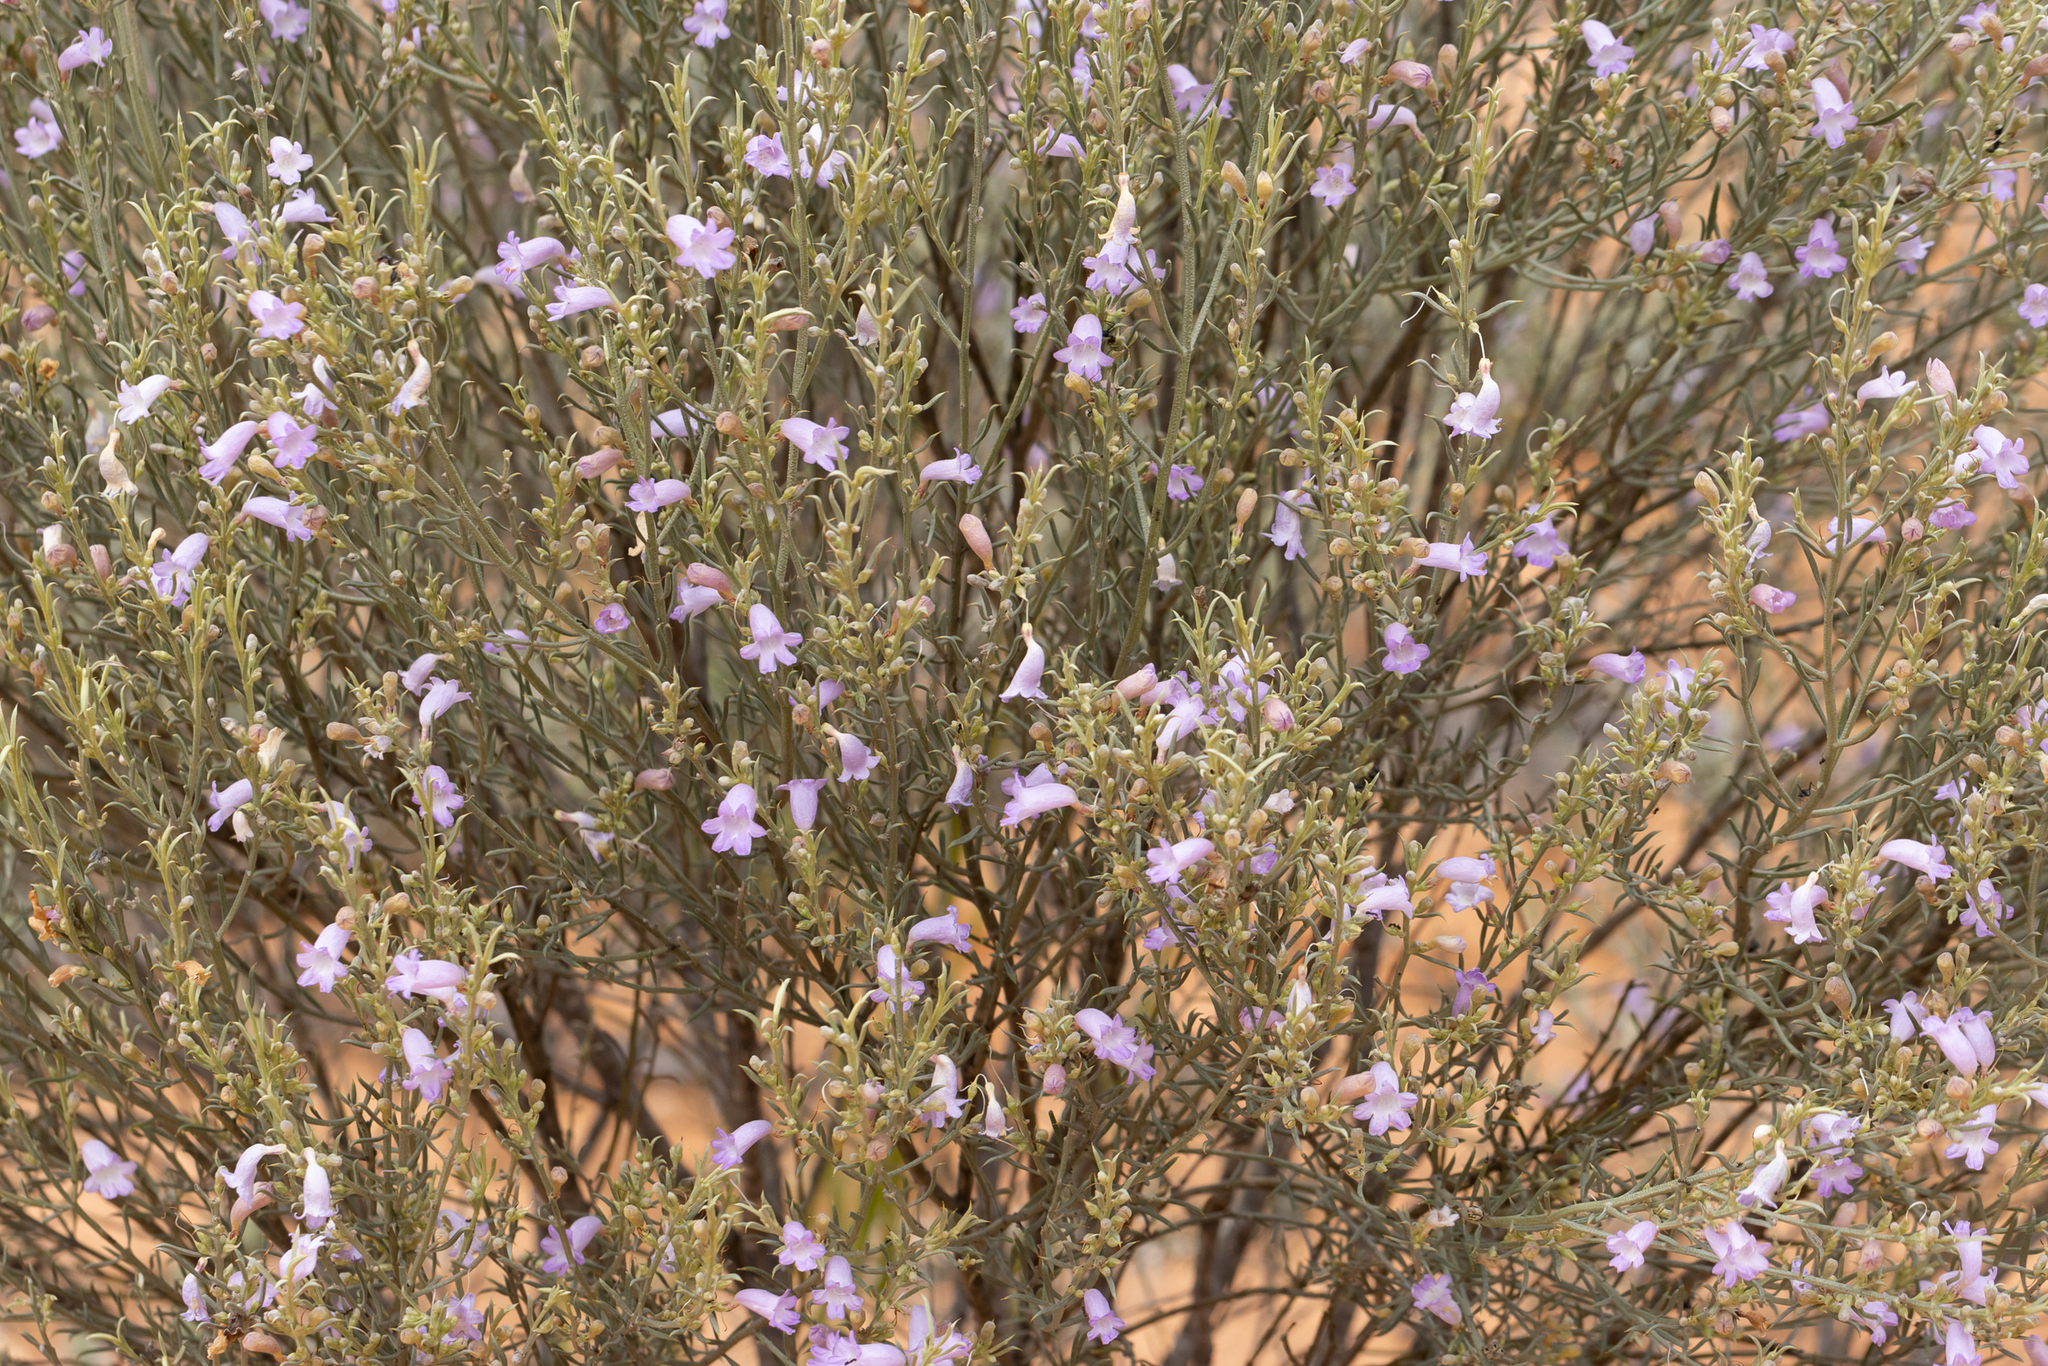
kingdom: Plantae
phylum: Tracheophyta
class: Magnoliopsida
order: Lamiales
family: Scrophulariaceae
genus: Eremophila
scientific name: Eremophila scoparia
